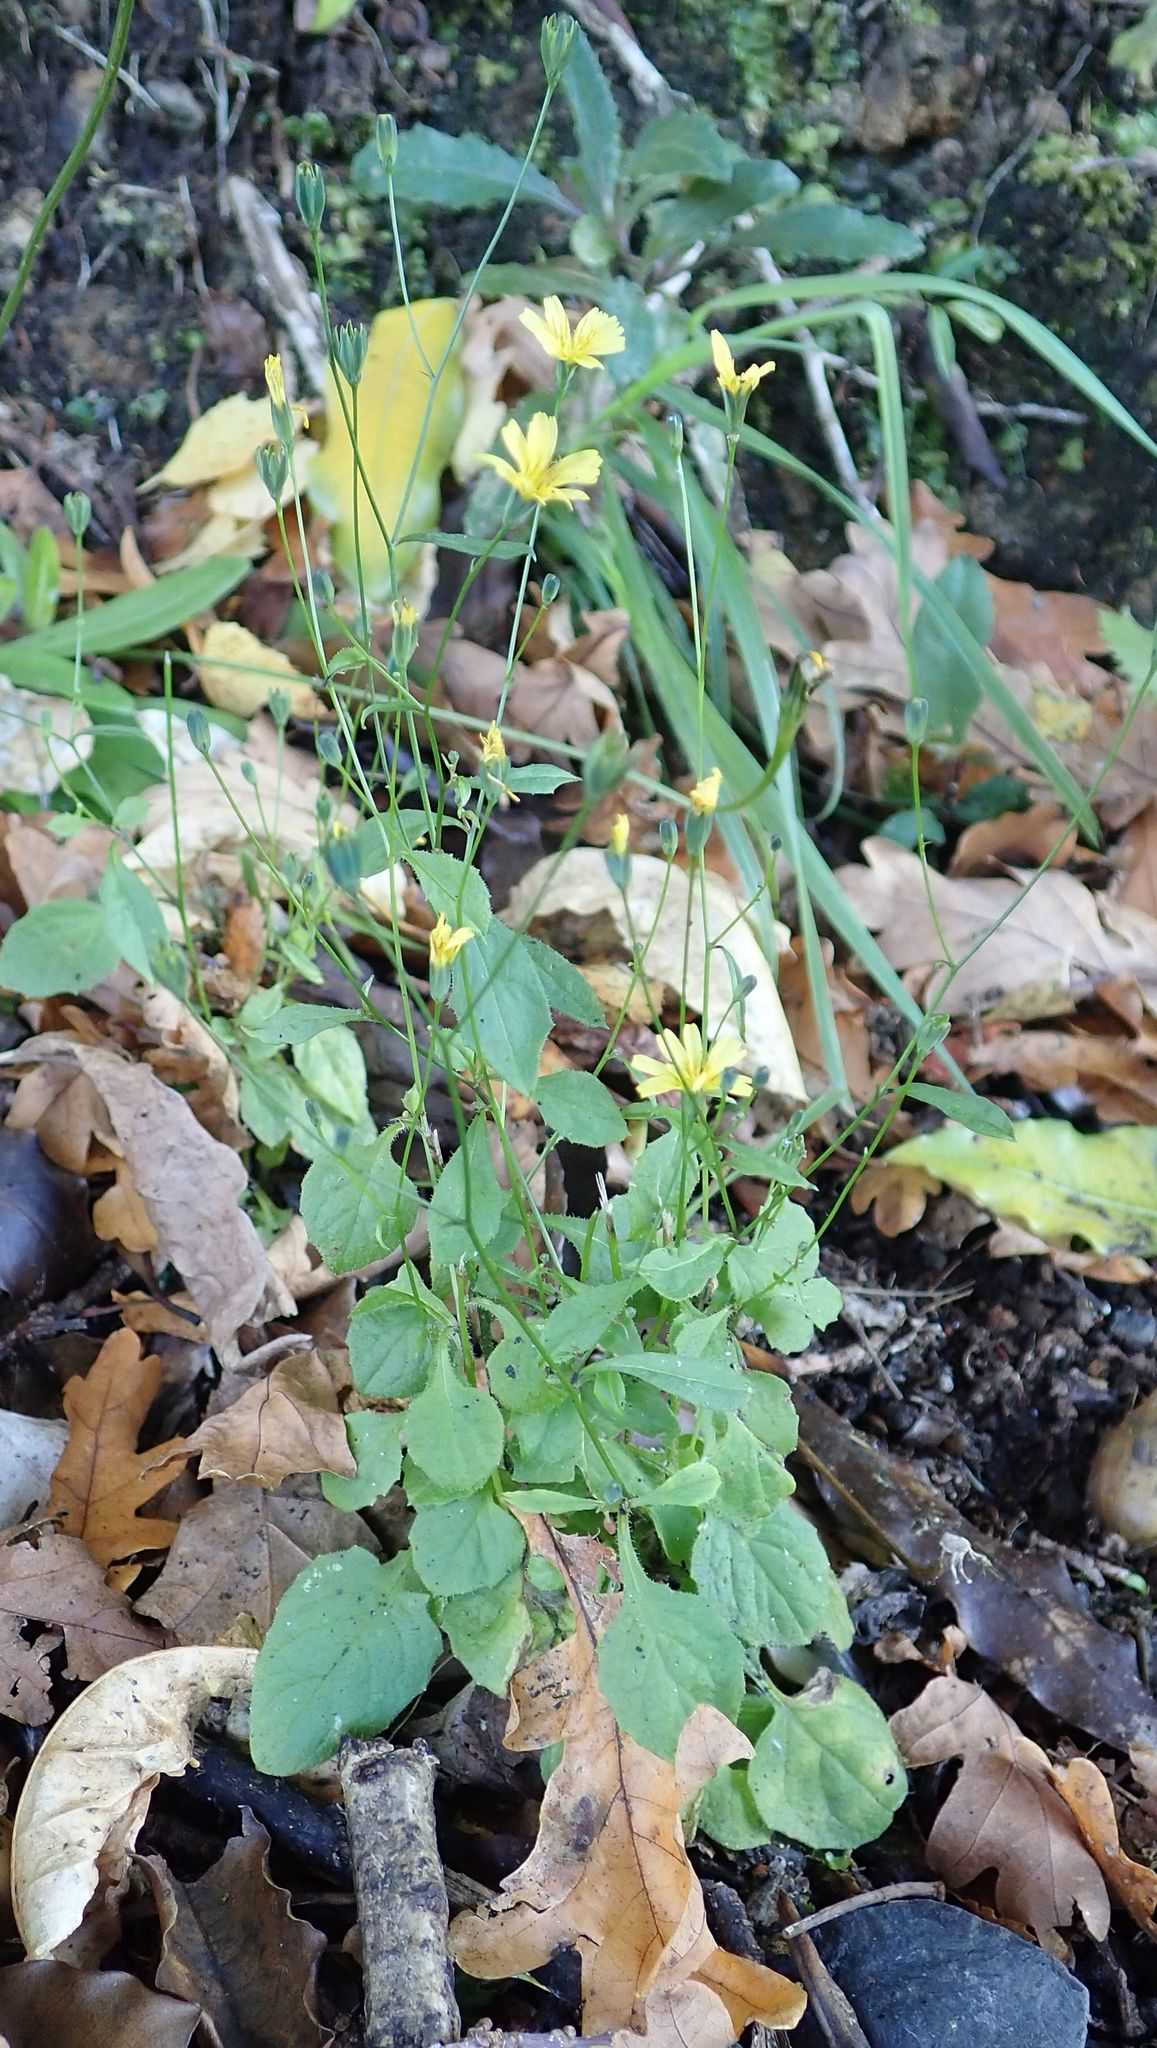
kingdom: Plantae
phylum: Tracheophyta
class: Magnoliopsida
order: Asterales
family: Asteraceae
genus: Lapsana
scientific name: Lapsana communis
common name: Nipplewort
